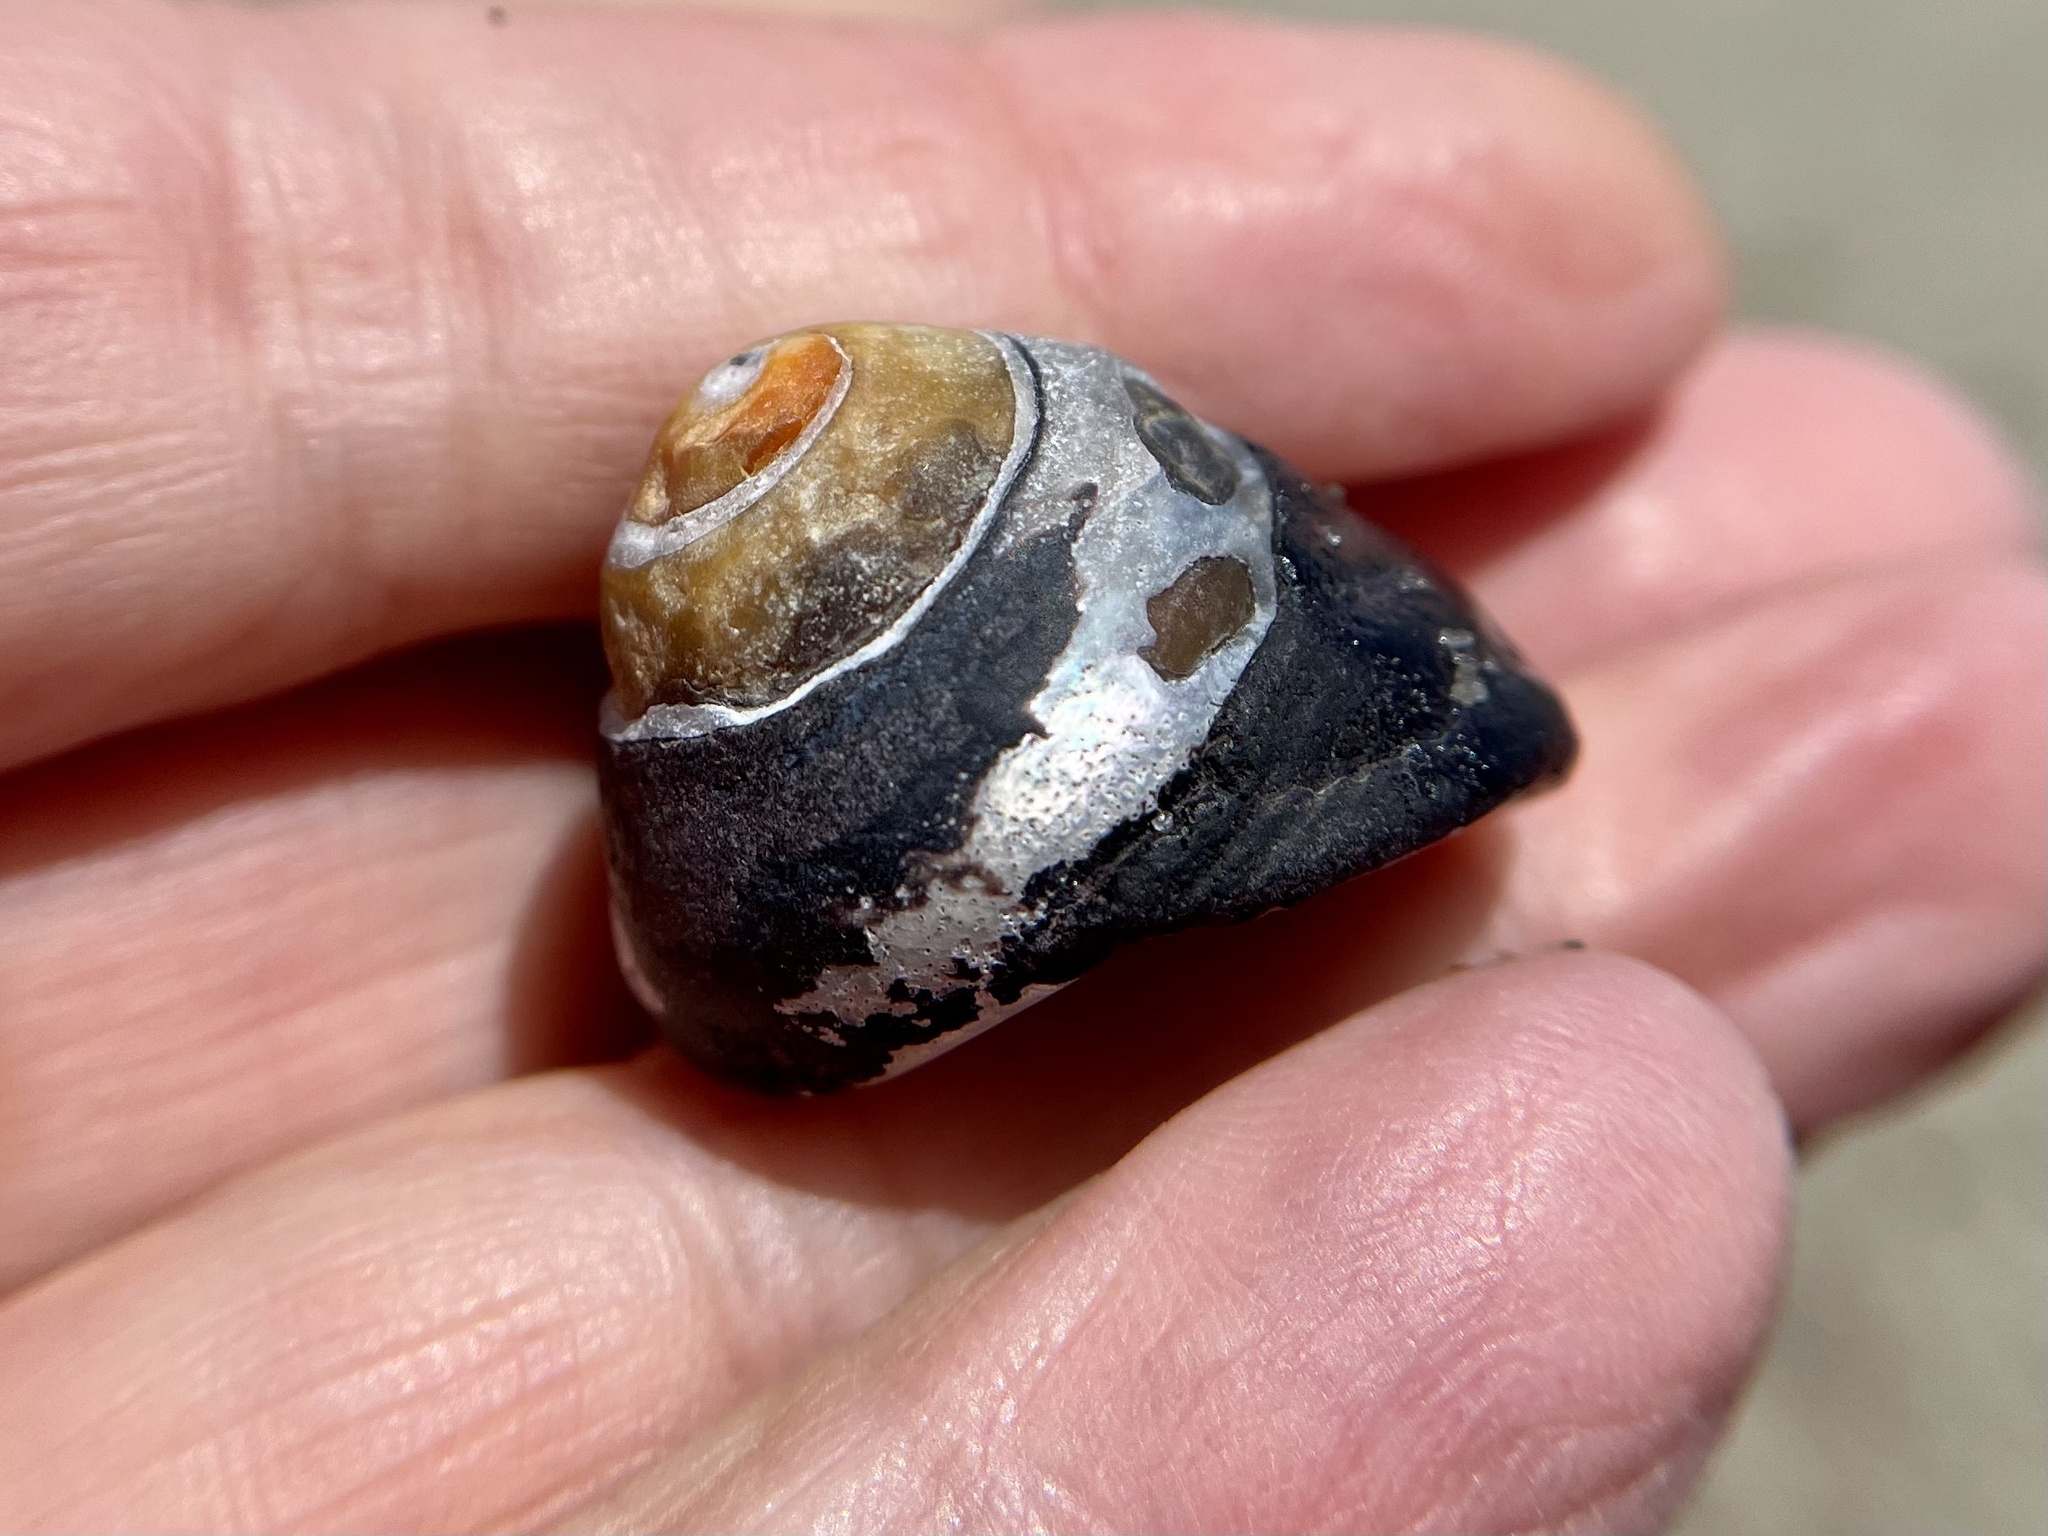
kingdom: Animalia
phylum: Mollusca
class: Gastropoda
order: Trochida
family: Tegulidae
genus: Tegula
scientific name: Tegula funebralis
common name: Black tegula
